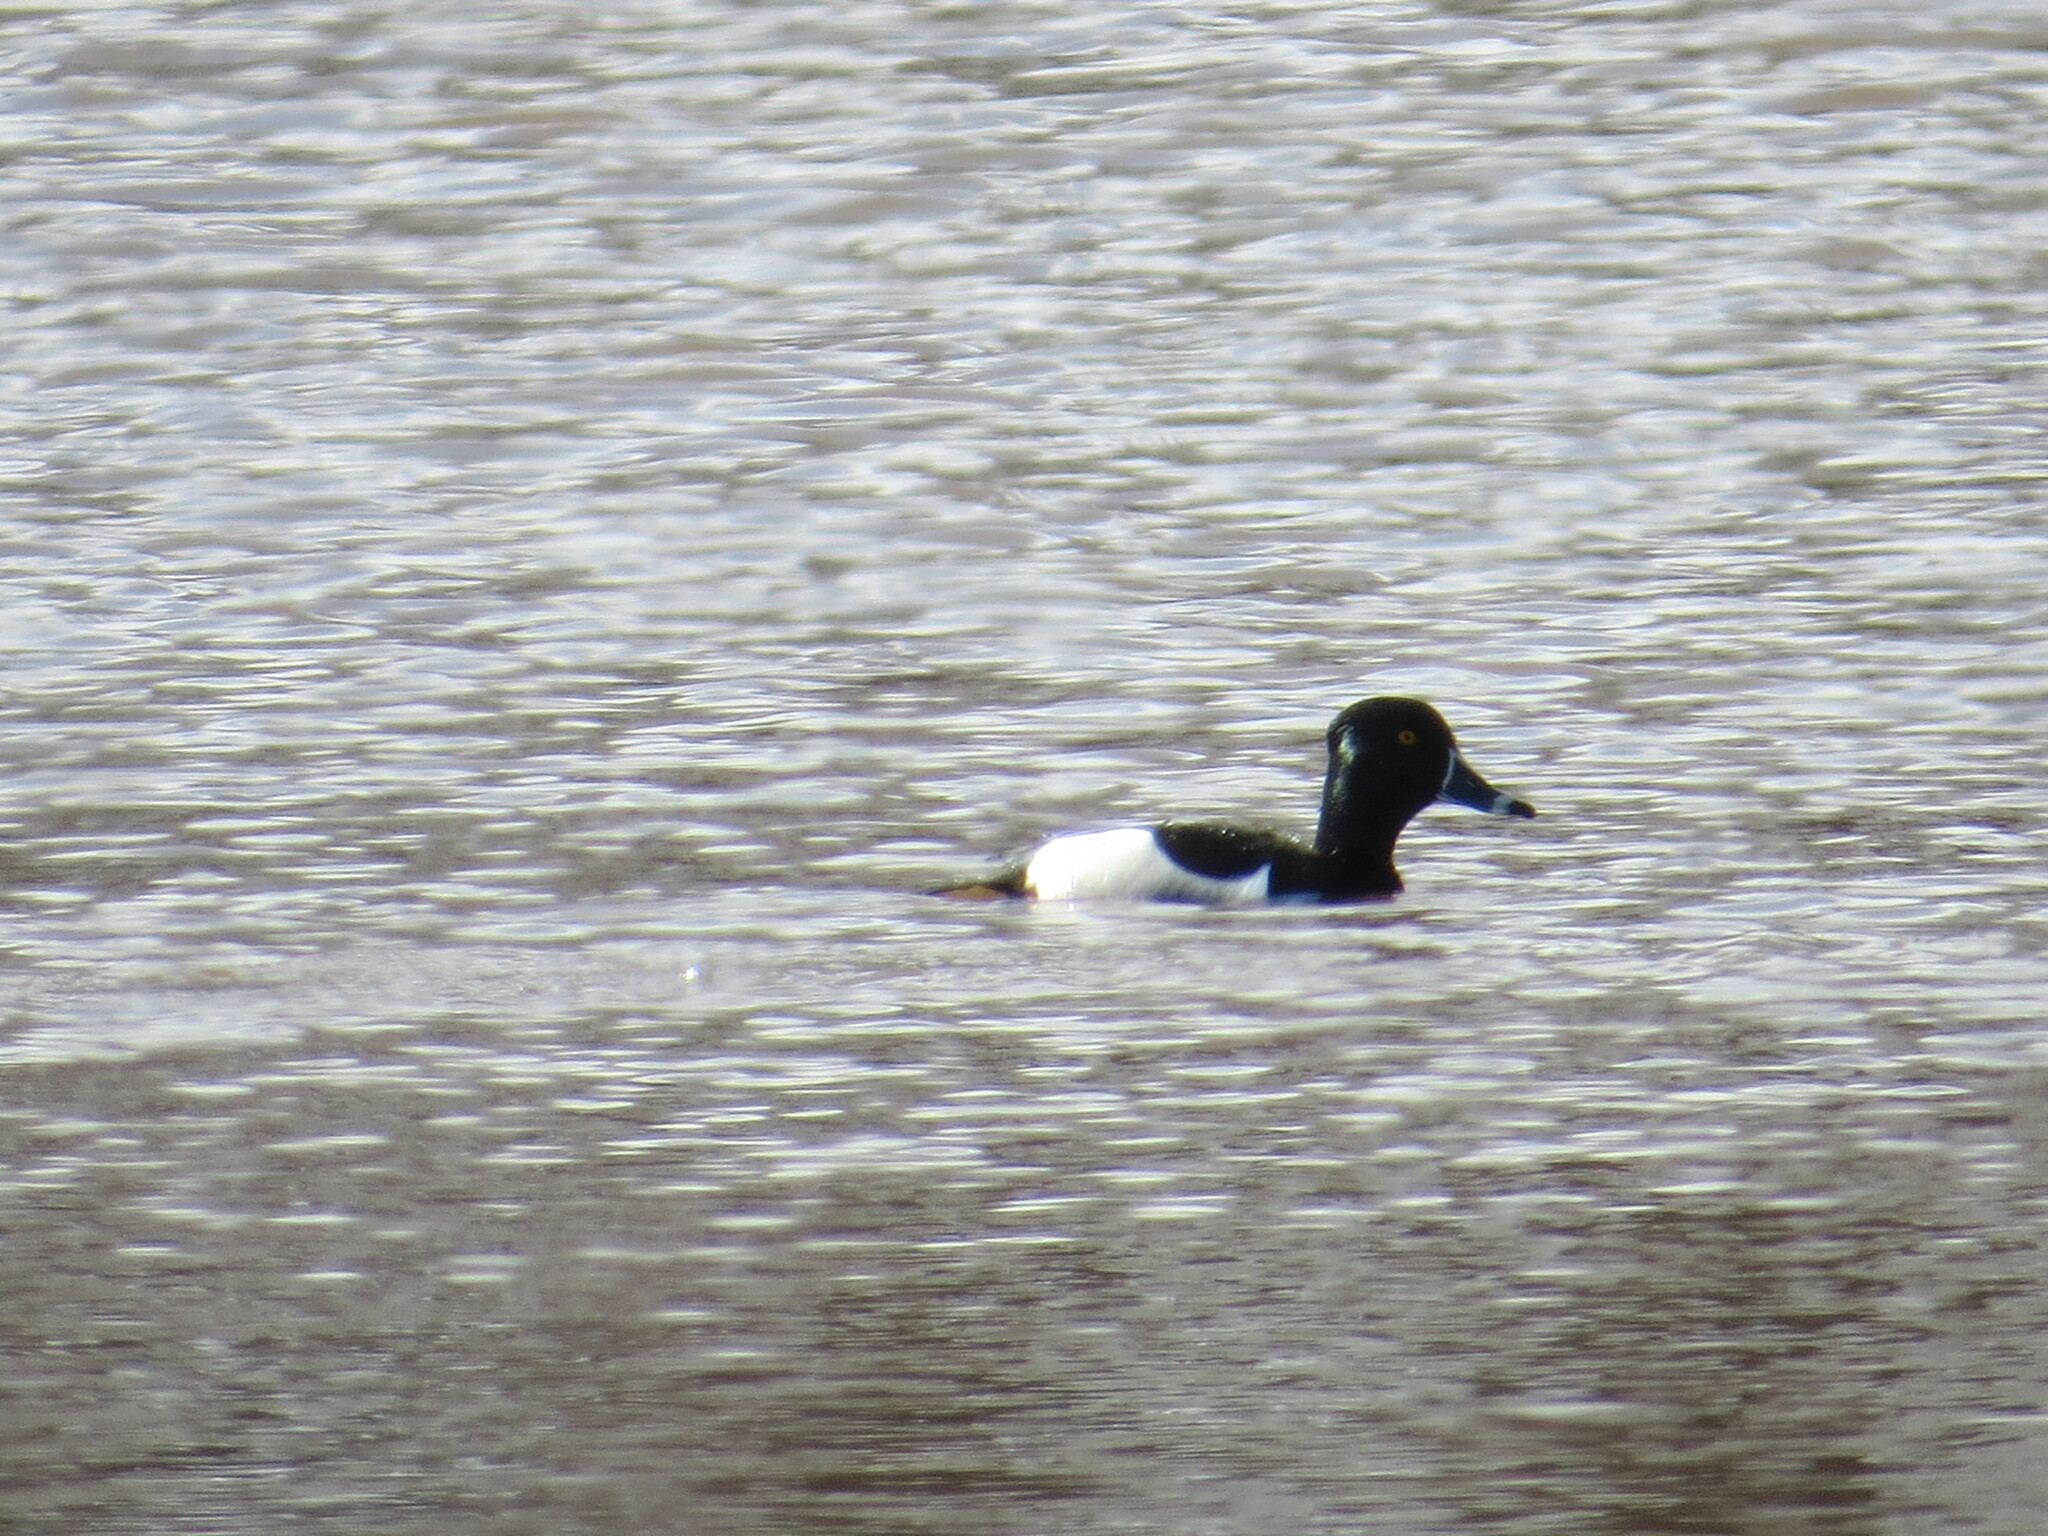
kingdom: Animalia
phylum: Chordata
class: Aves
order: Anseriformes
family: Anatidae
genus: Aythya
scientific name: Aythya collaris
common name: Ring-necked duck
